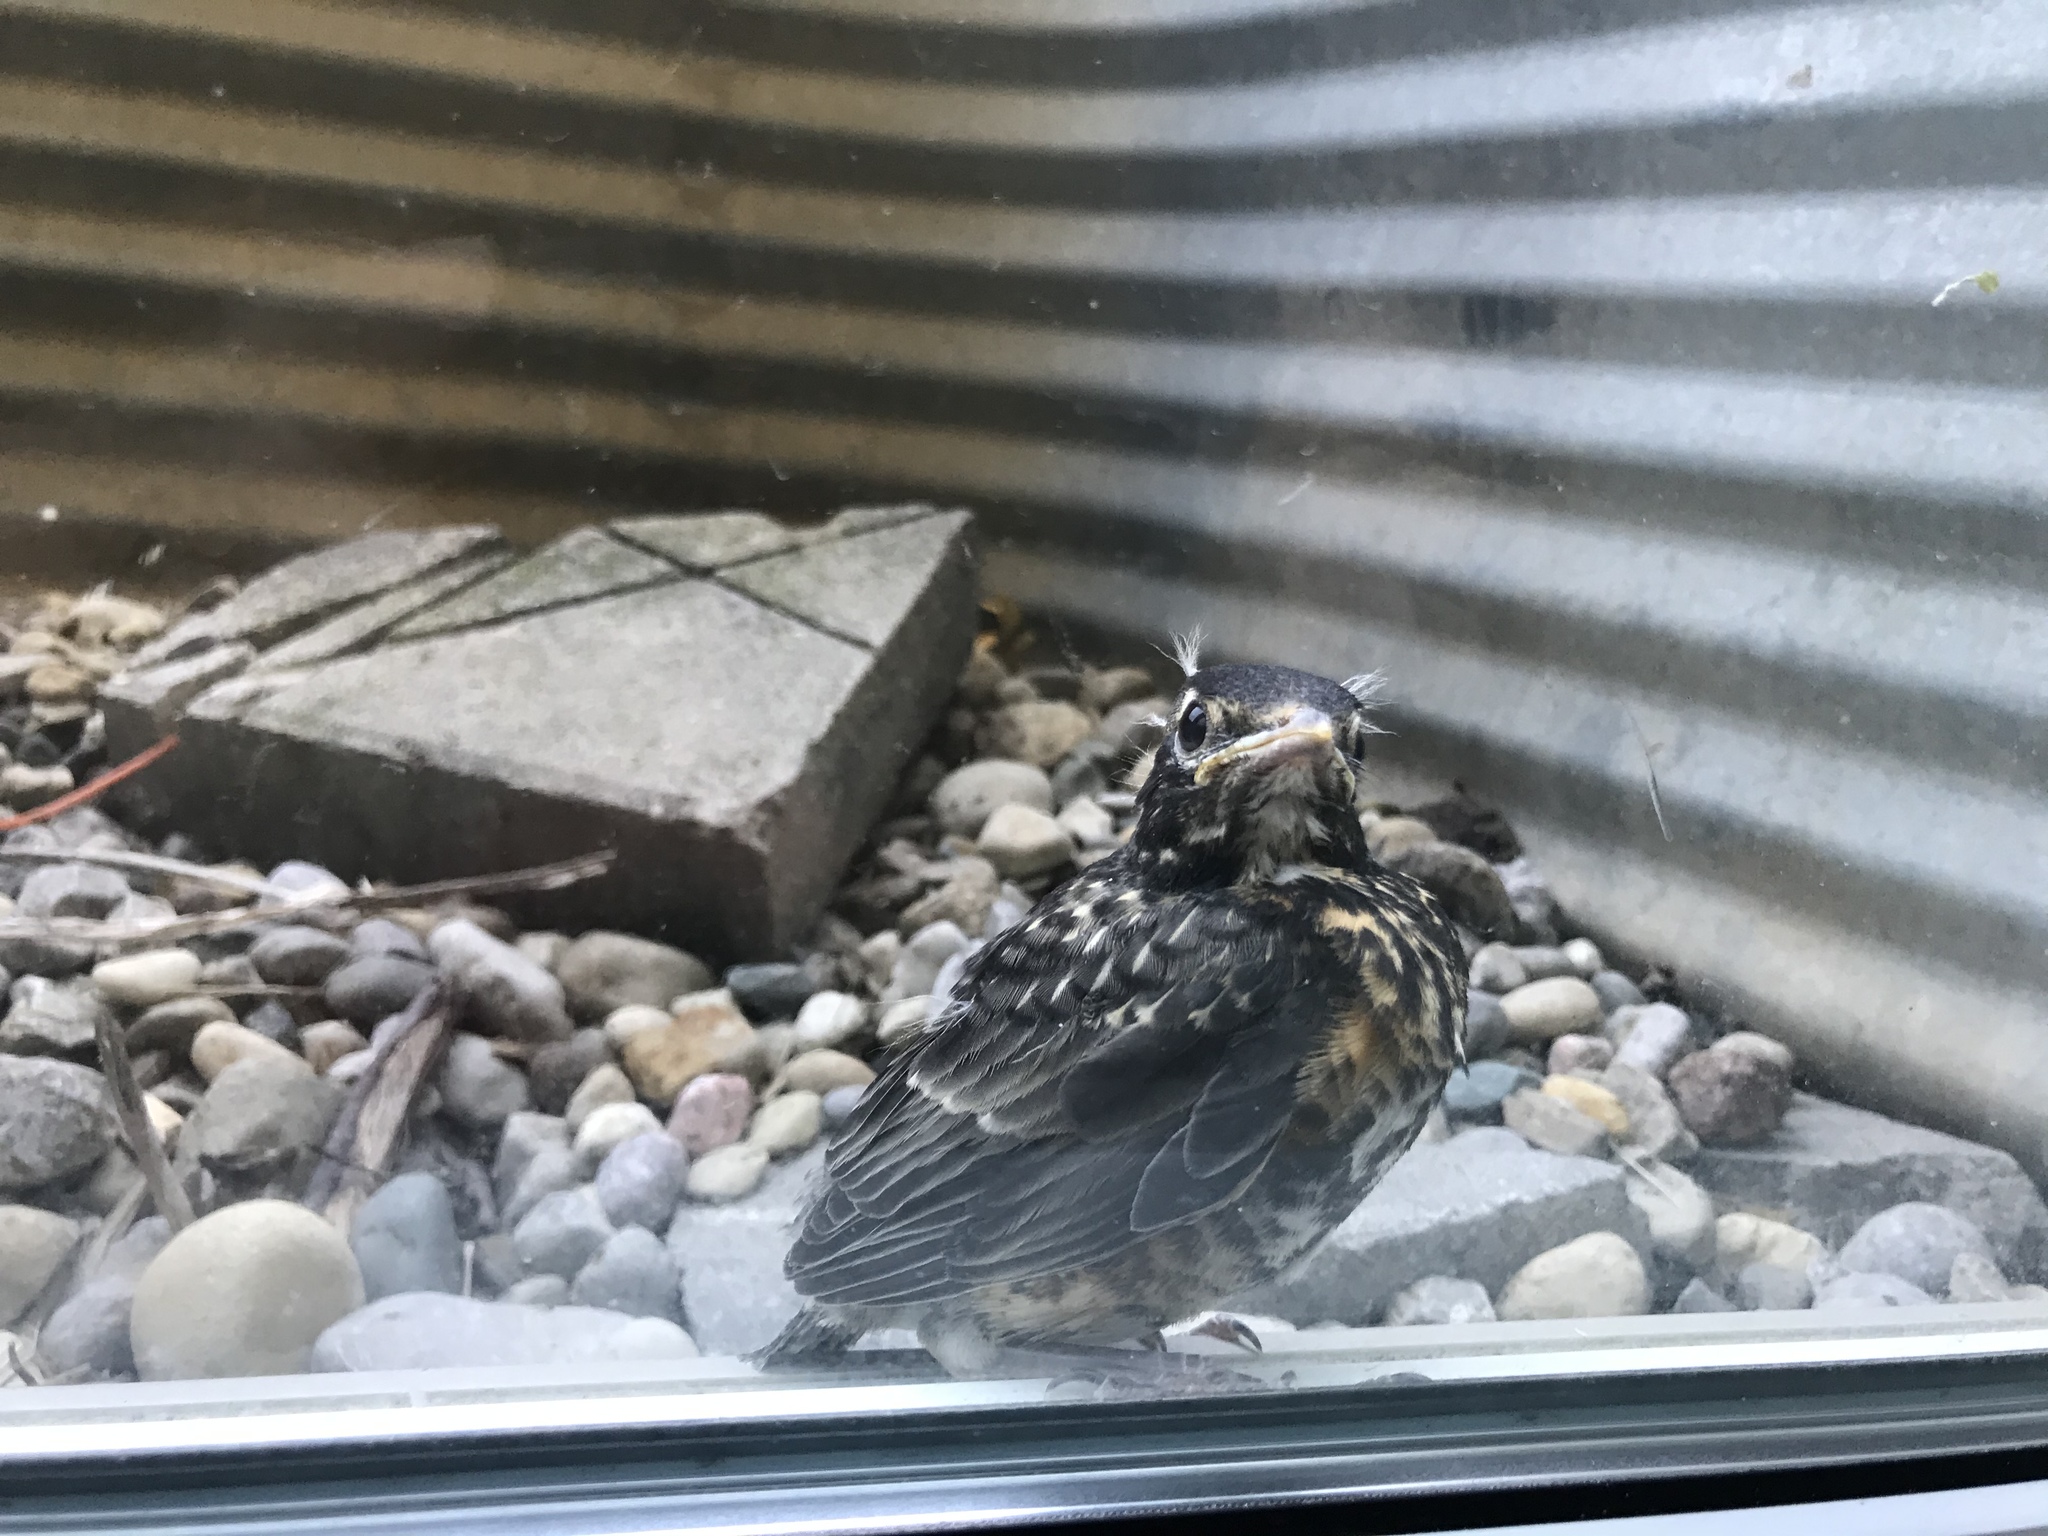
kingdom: Animalia
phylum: Chordata
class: Aves
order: Passeriformes
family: Turdidae
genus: Turdus
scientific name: Turdus migratorius
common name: American robin
